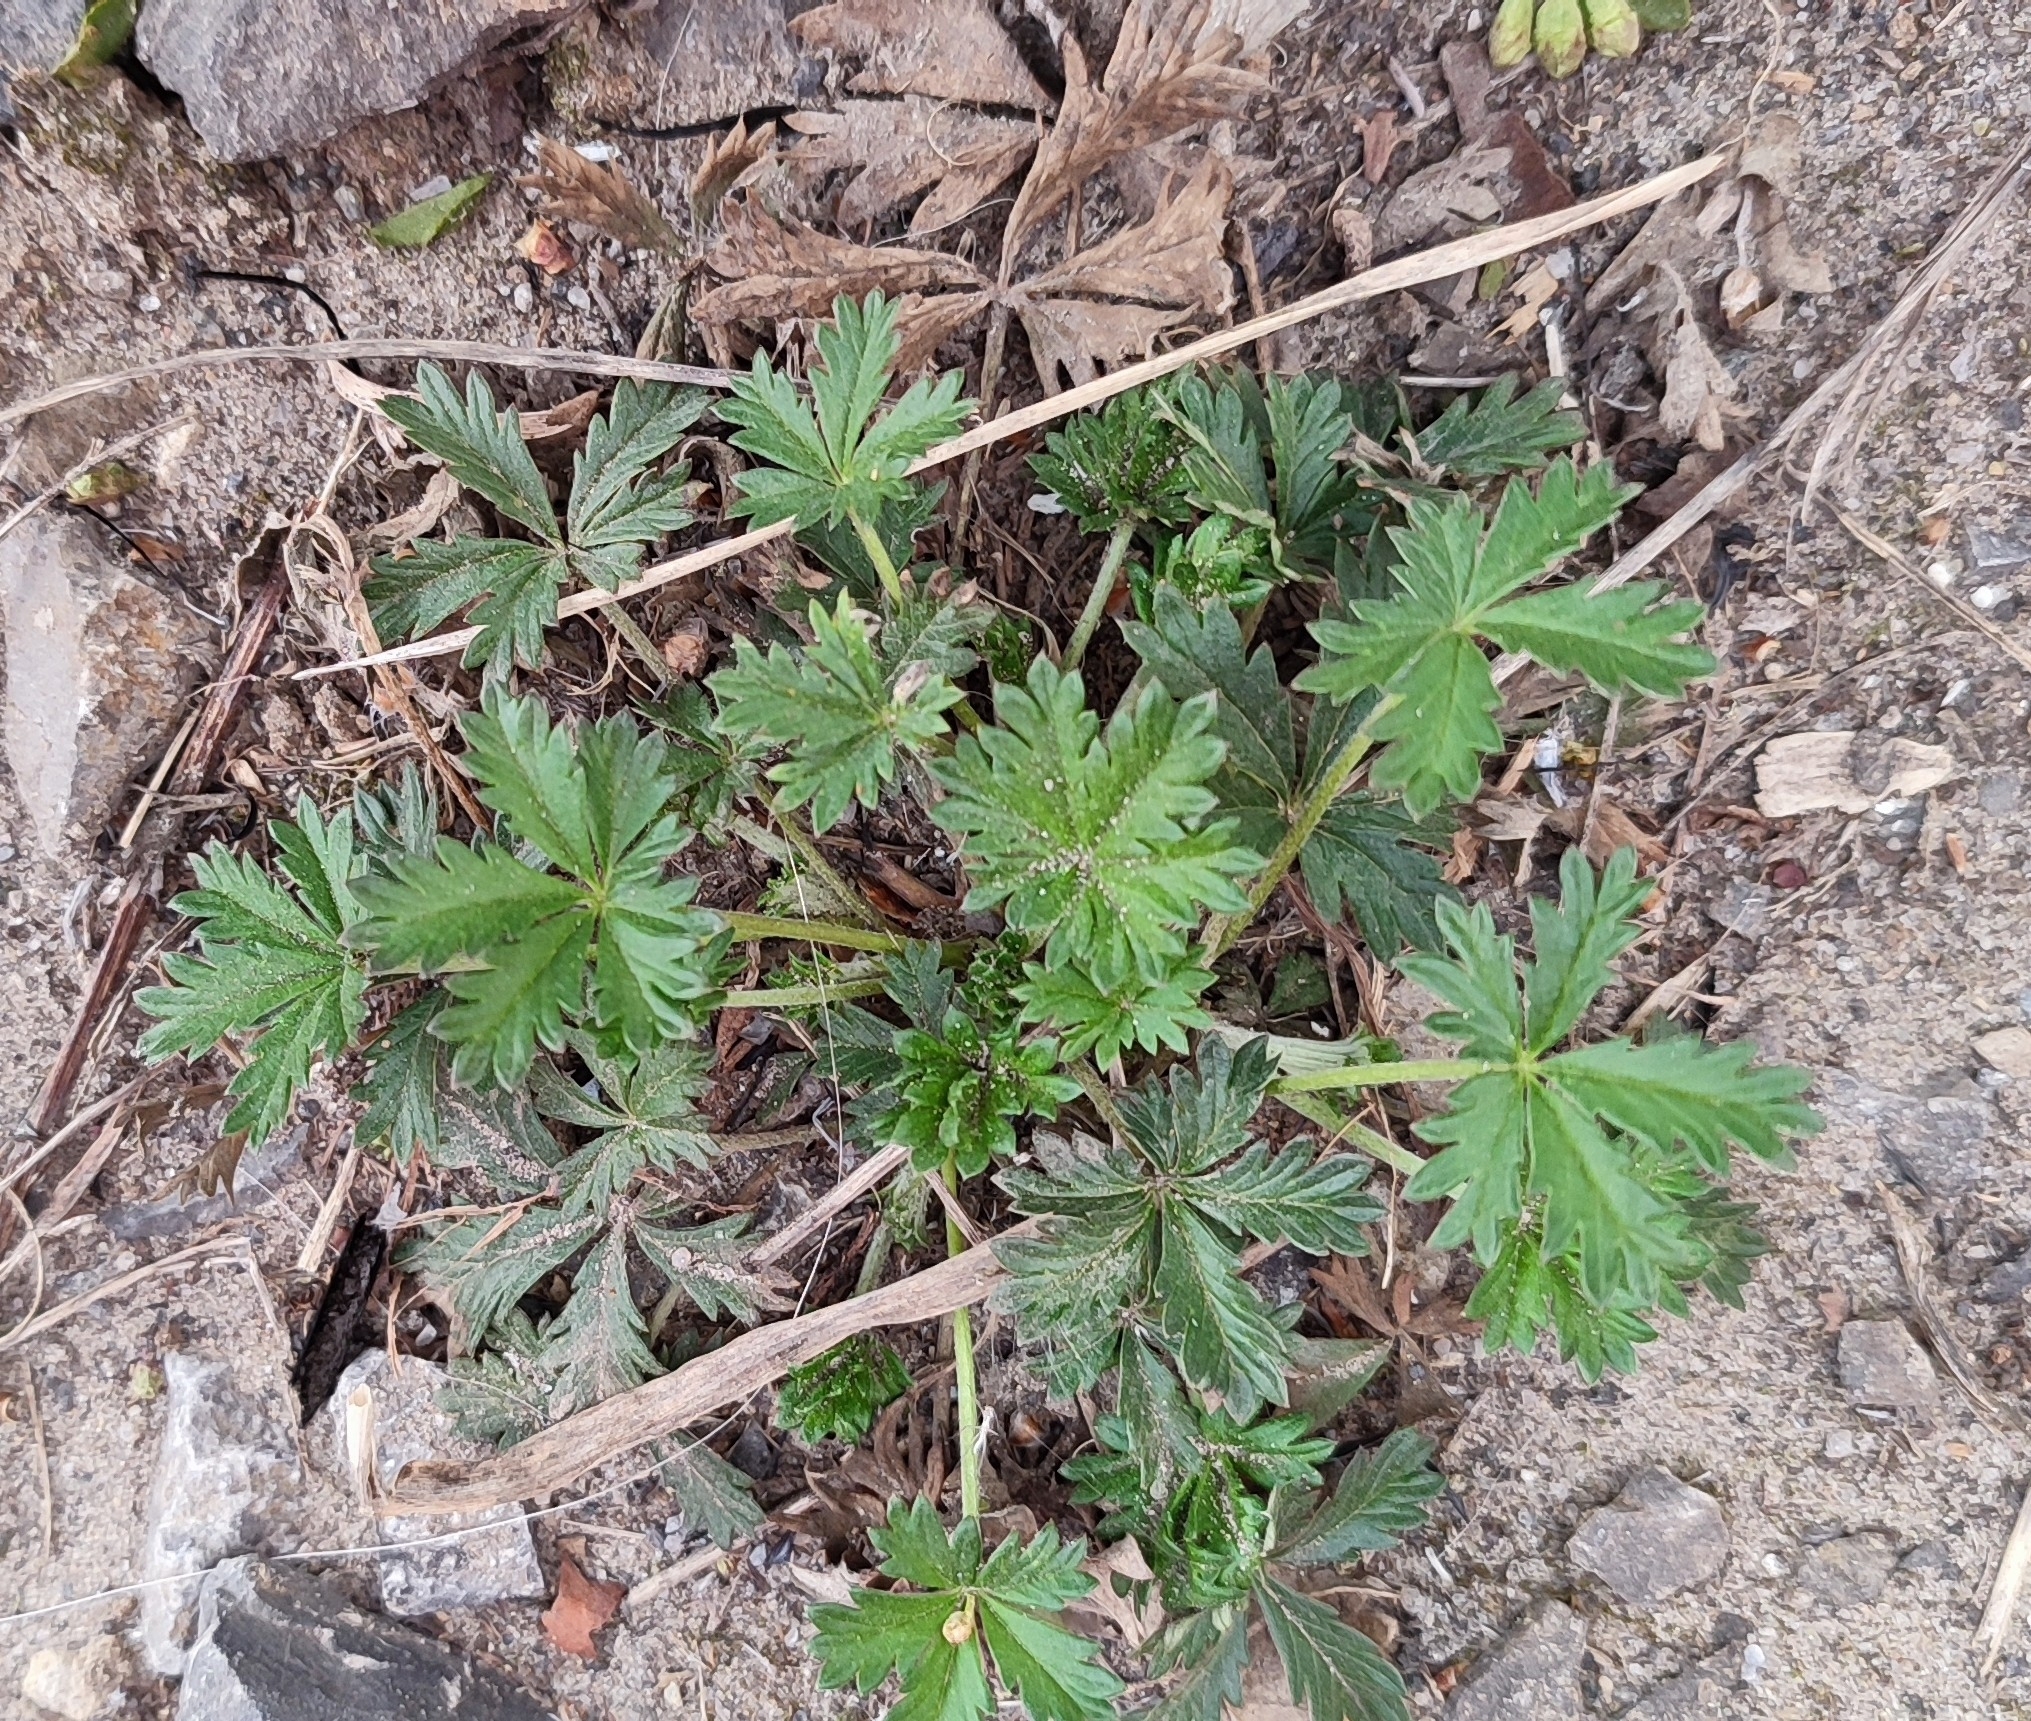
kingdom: Plantae
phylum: Tracheophyta
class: Magnoliopsida
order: Rosales
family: Rosaceae
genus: Potentilla
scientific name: Potentilla argentea
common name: Hoary cinquefoil
